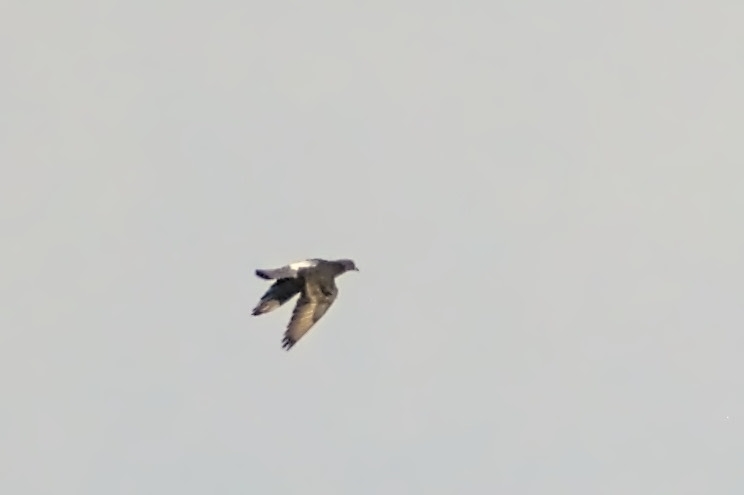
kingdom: Animalia
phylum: Chordata
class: Aves
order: Columbiformes
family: Columbidae
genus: Columba
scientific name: Columba livia
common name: Rock pigeon
